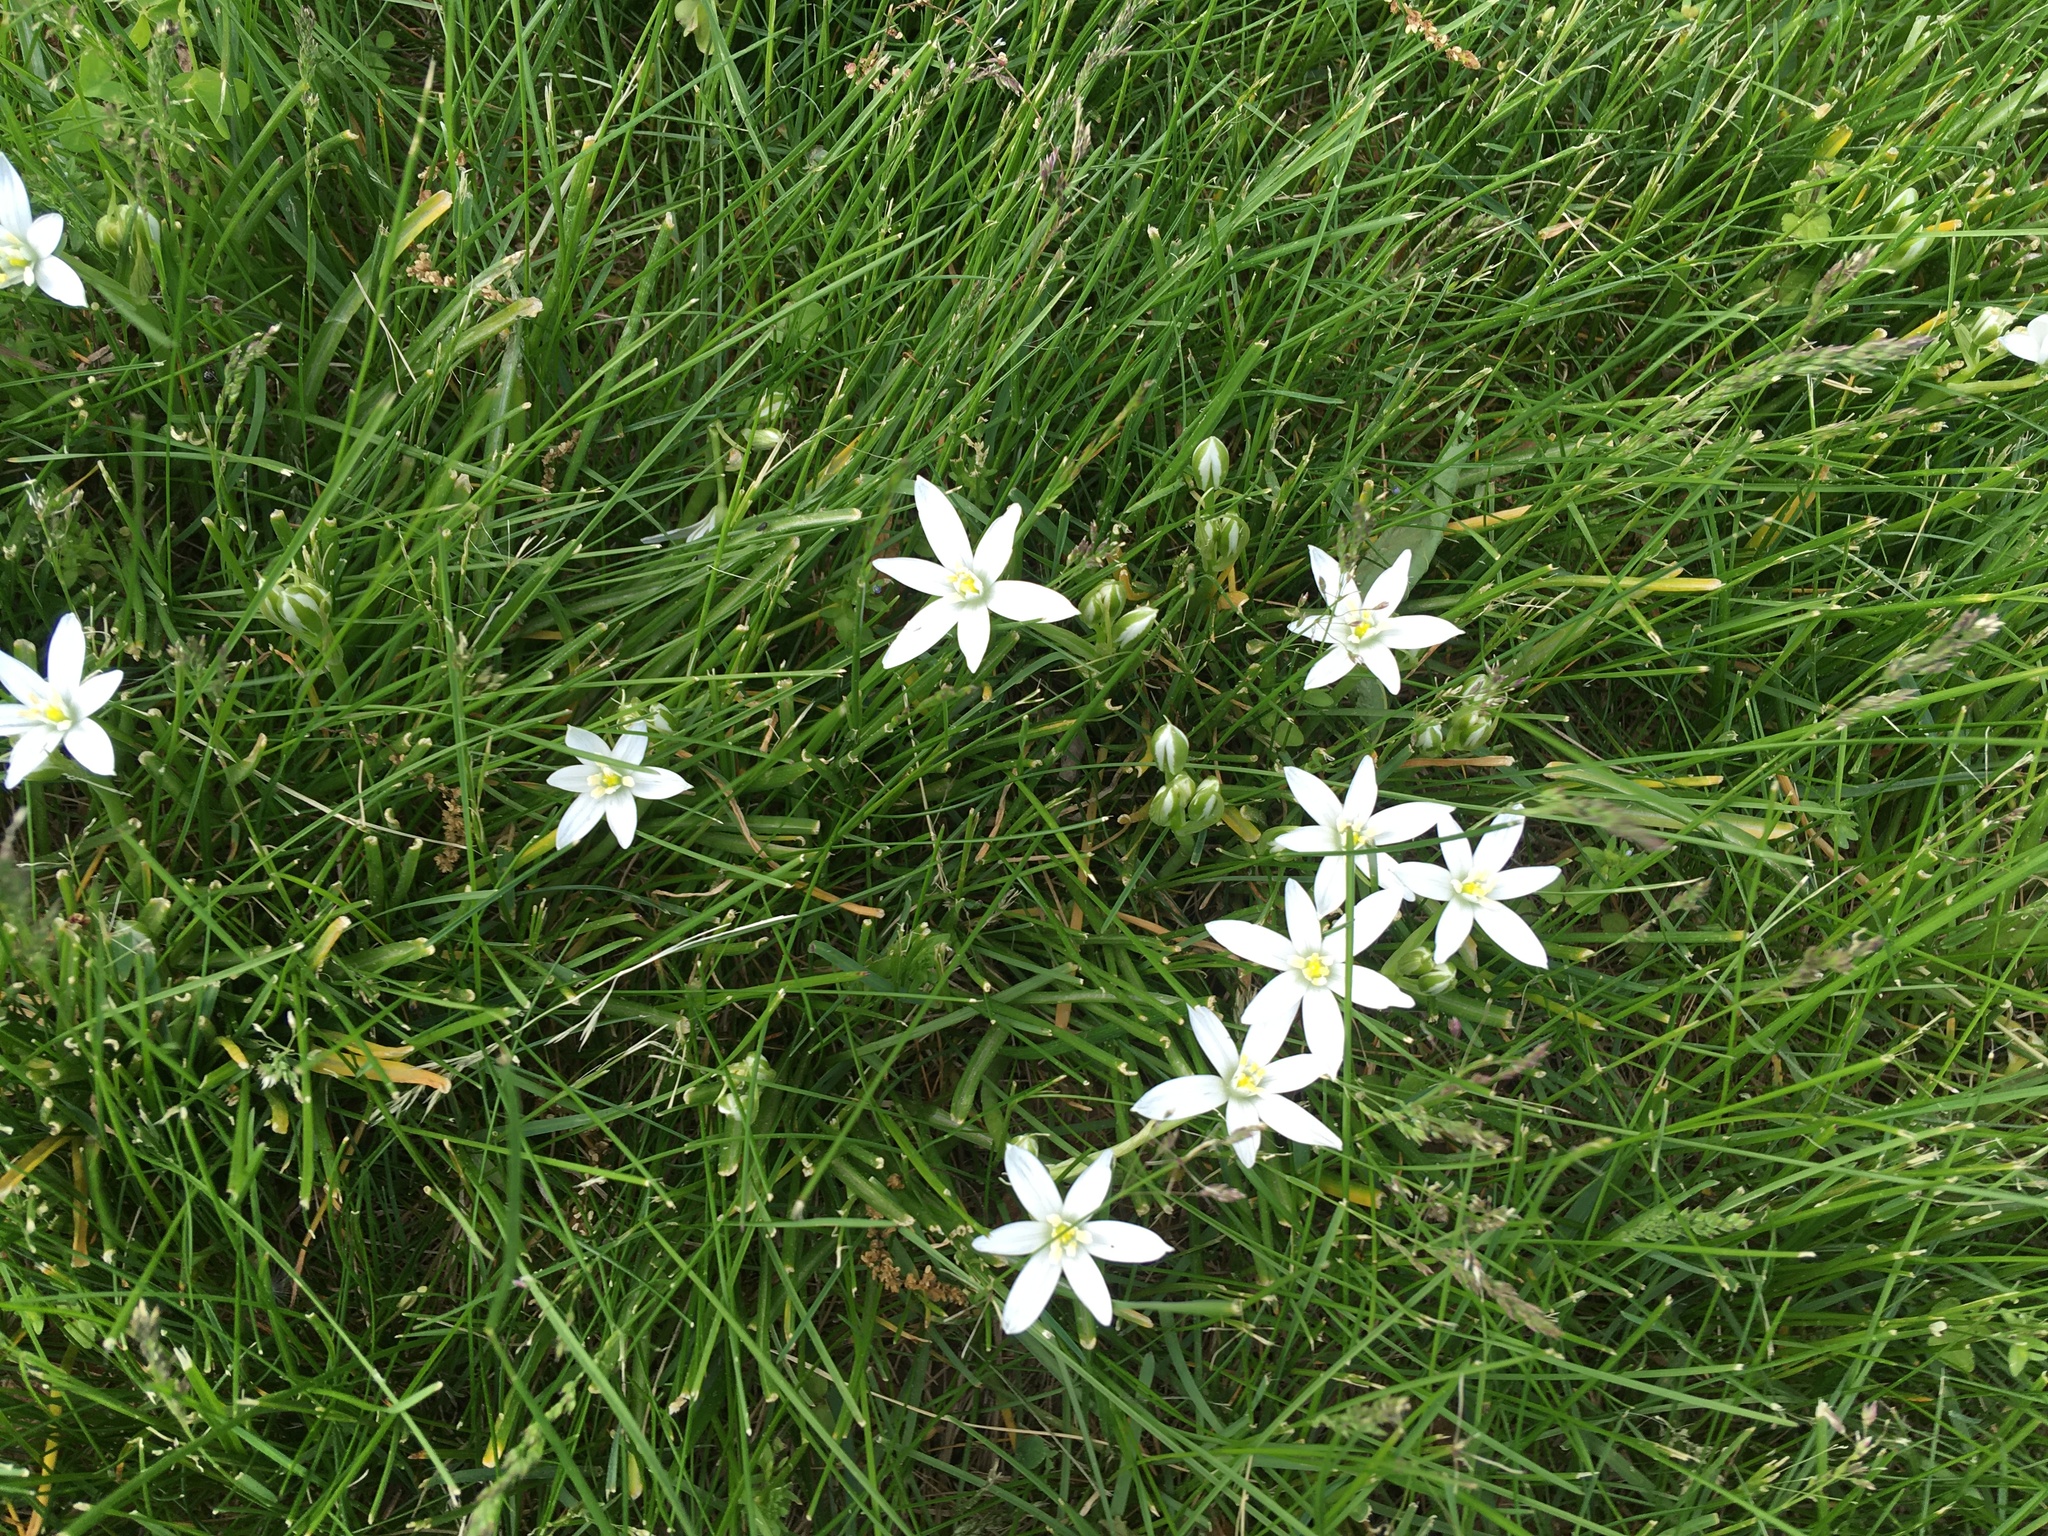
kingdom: Plantae
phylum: Tracheophyta
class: Liliopsida
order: Asparagales
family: Asparagaceae
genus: Ornithogalum
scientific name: Ornithogalum umbellatum
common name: Garden star-of-bethlehem
